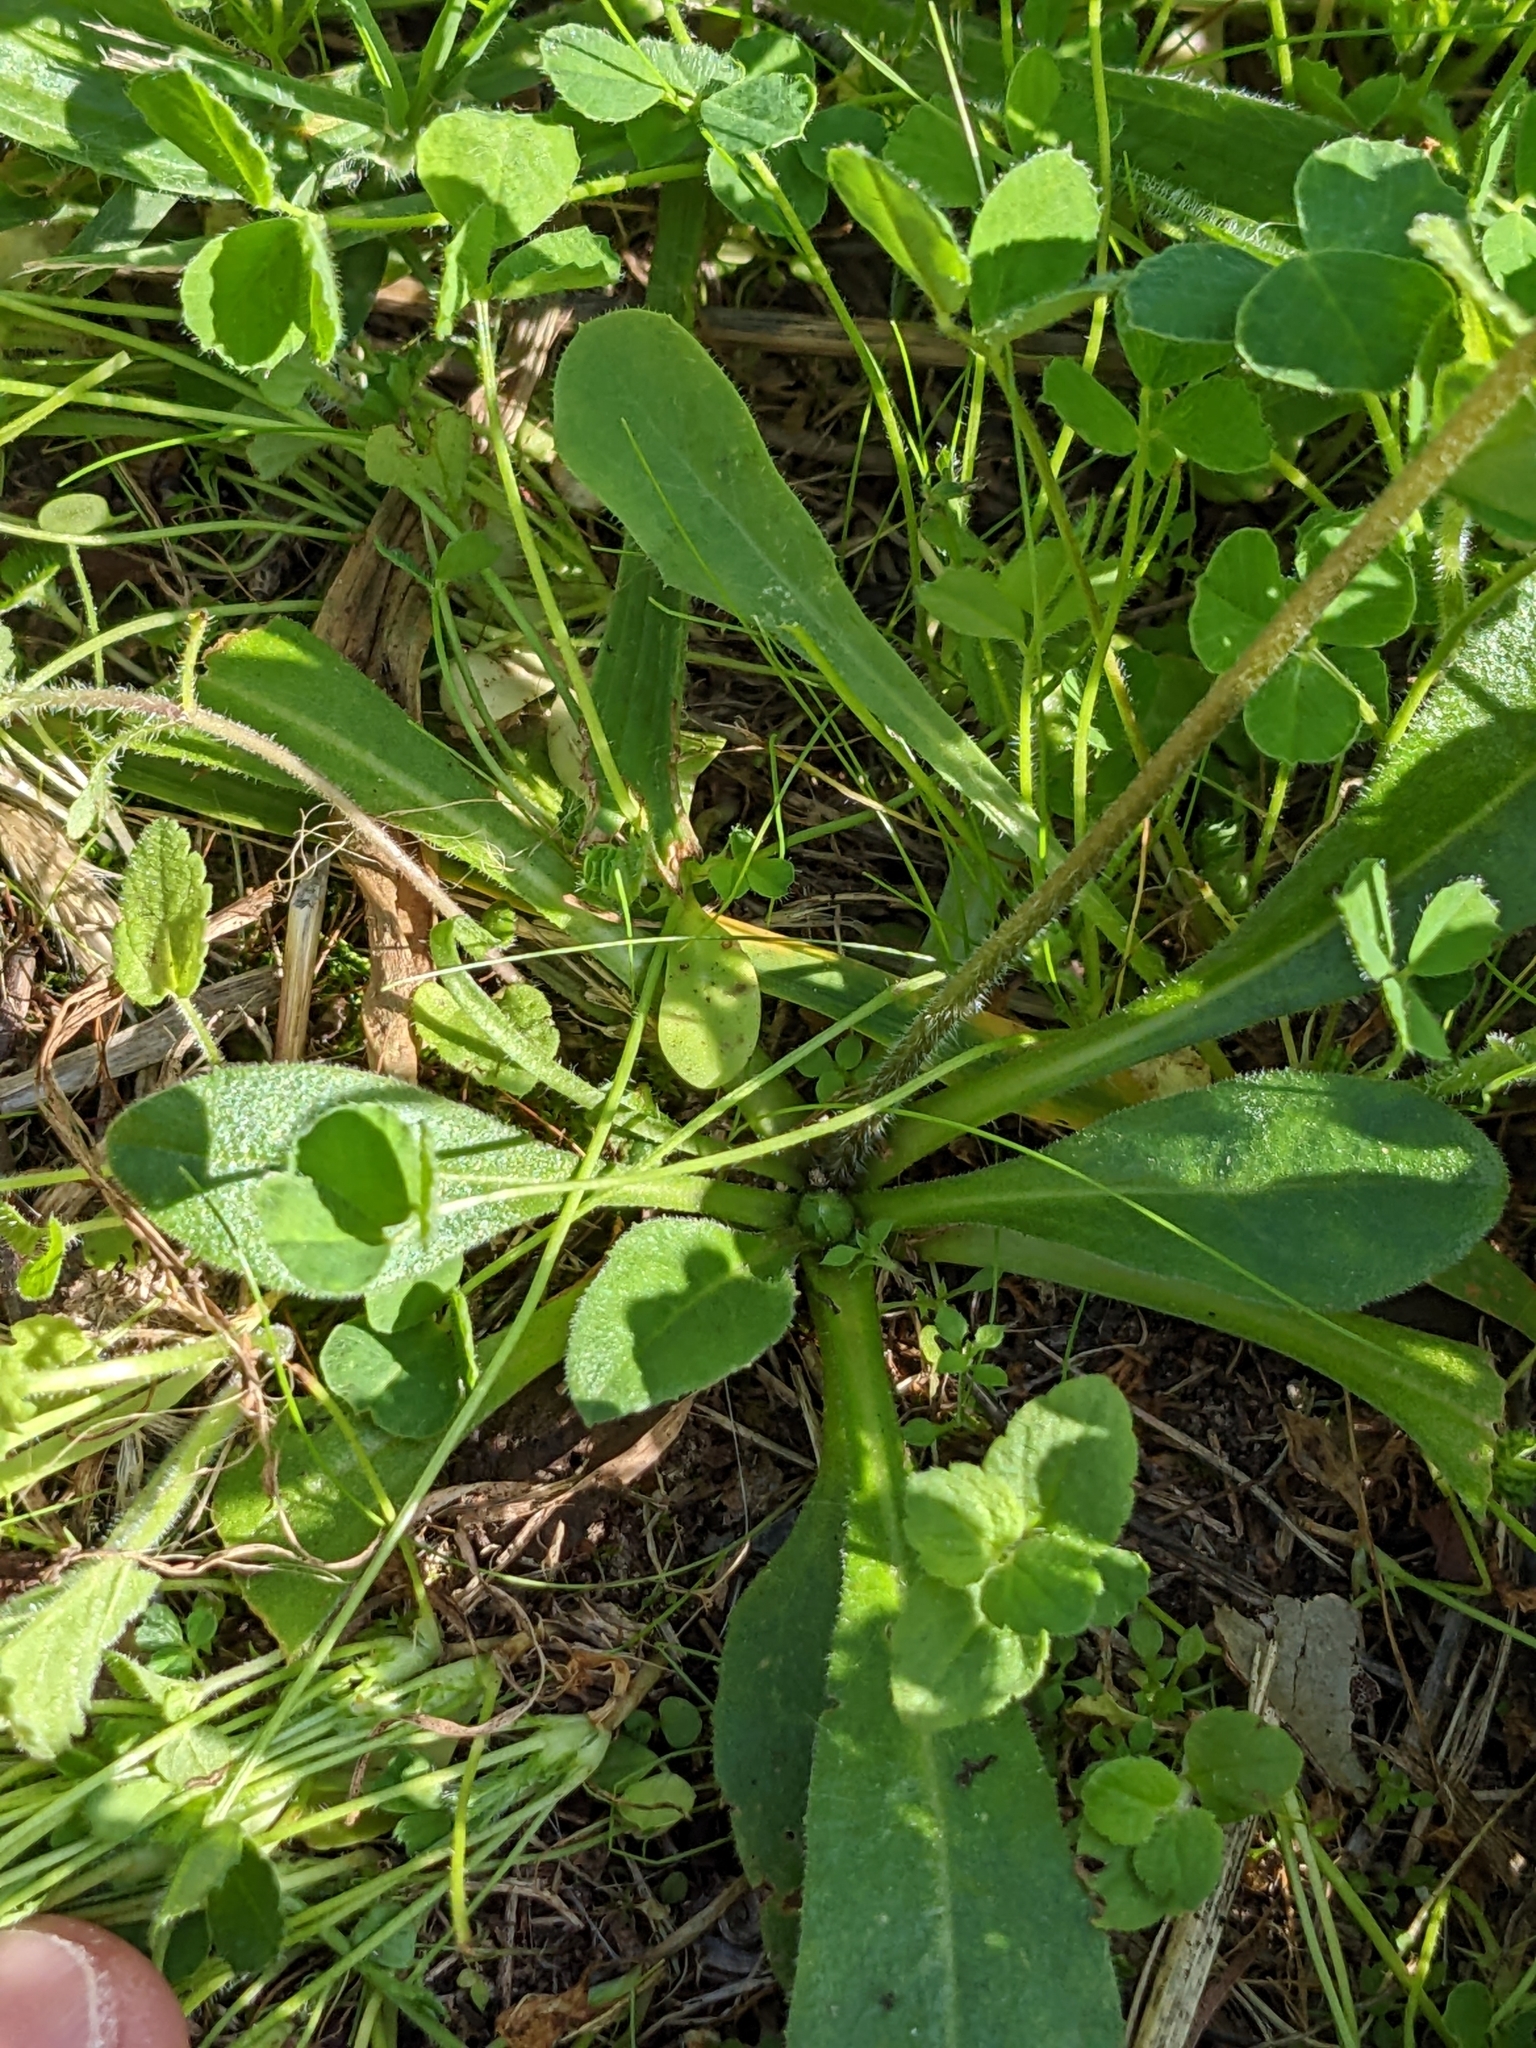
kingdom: Plantae
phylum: Tracheophyta
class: Magnoliopsida
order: Asterales
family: Asteraceae
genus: Bellis
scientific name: Bellis sylvestris
